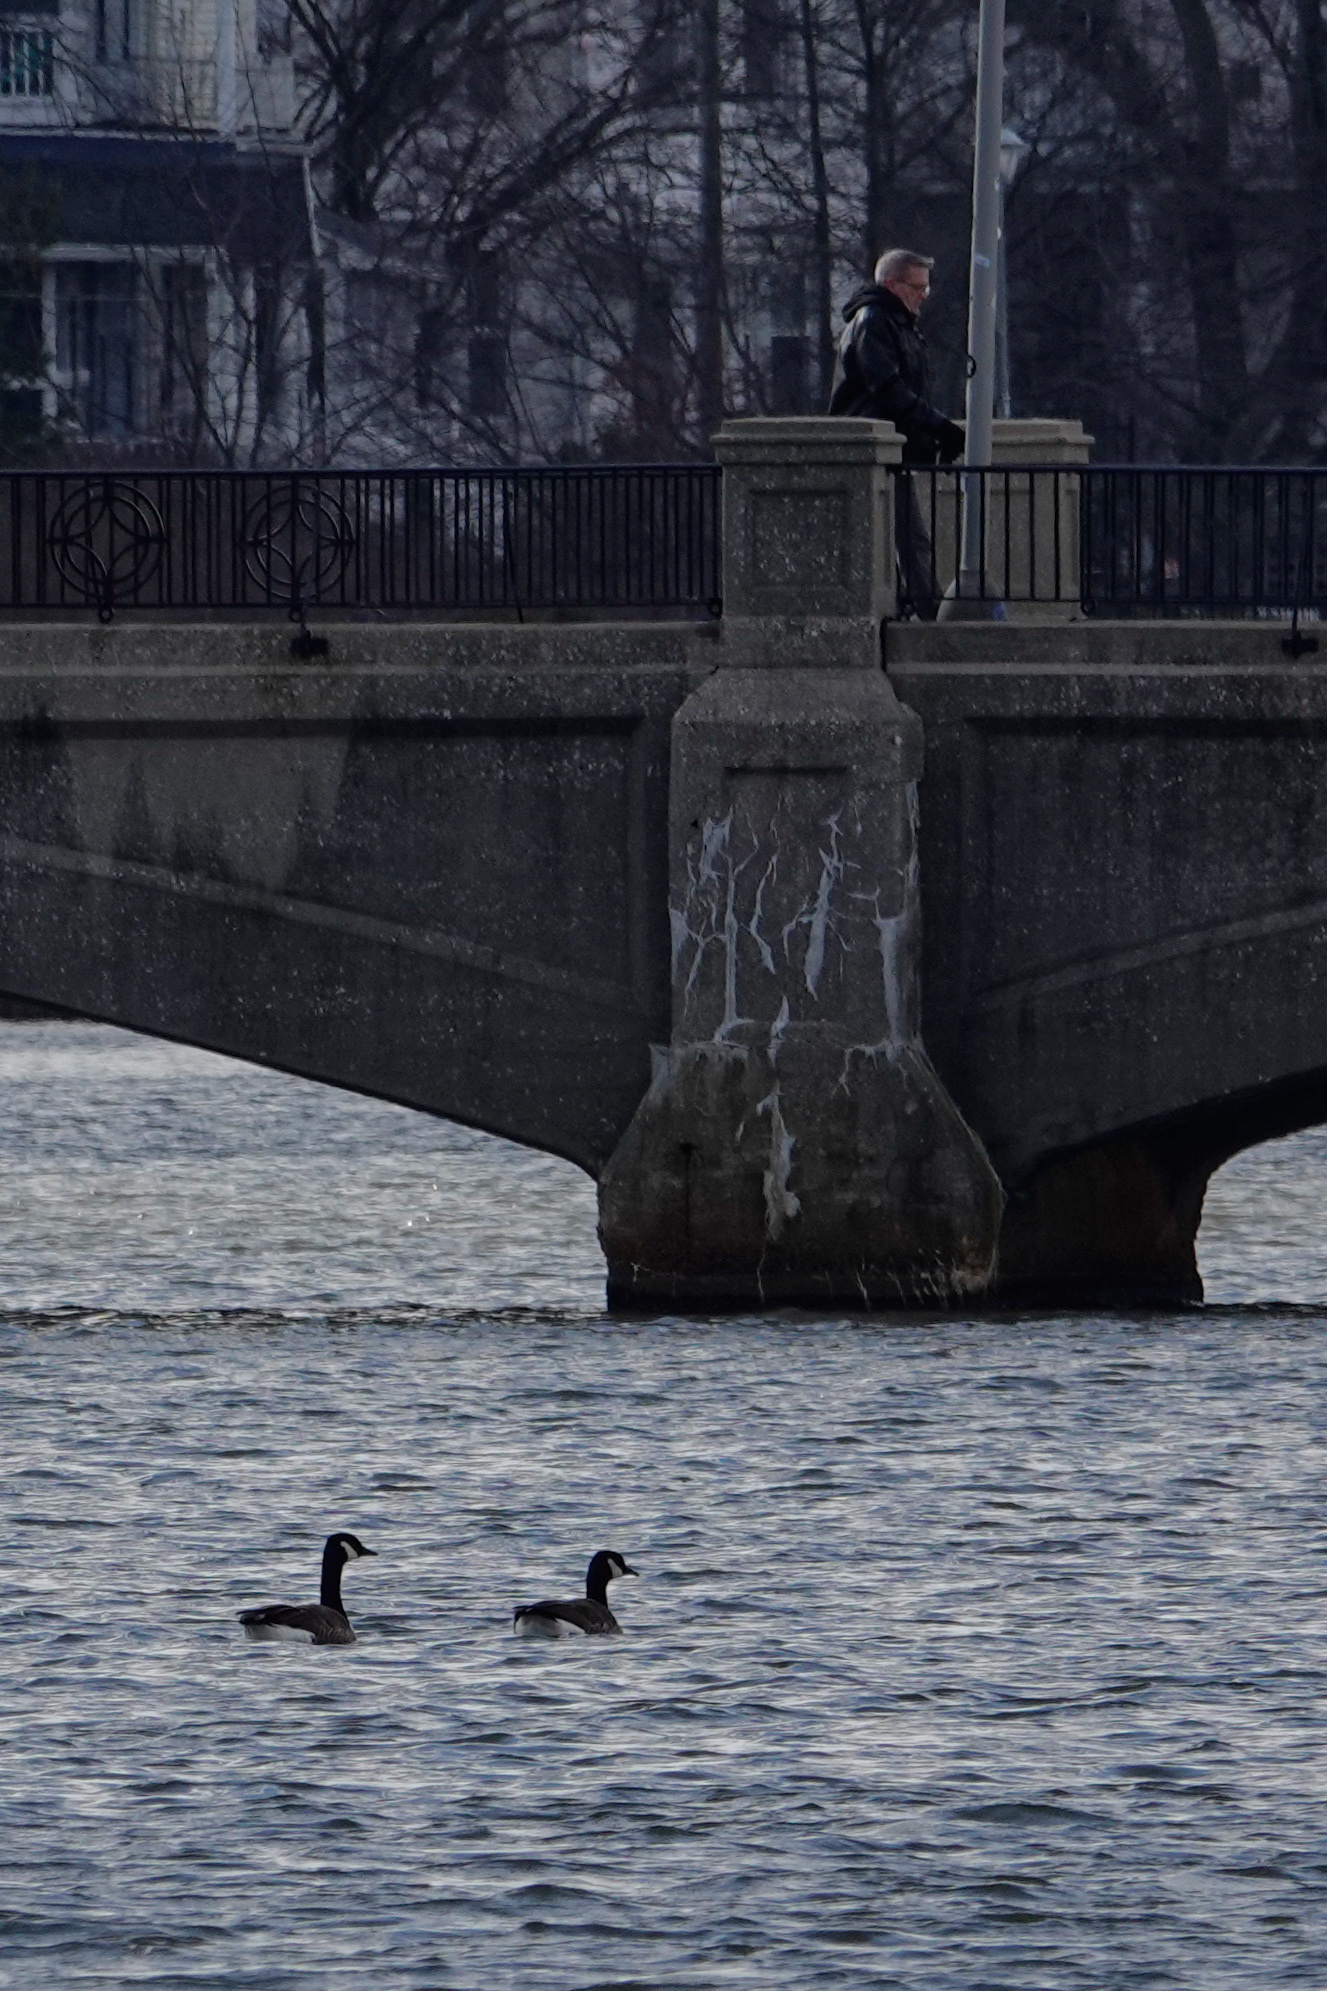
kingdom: Animalia
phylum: Chordata
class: Aves
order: Anseriformes
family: Anatidae
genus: Branta
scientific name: Branta canadensis
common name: Canada goose
